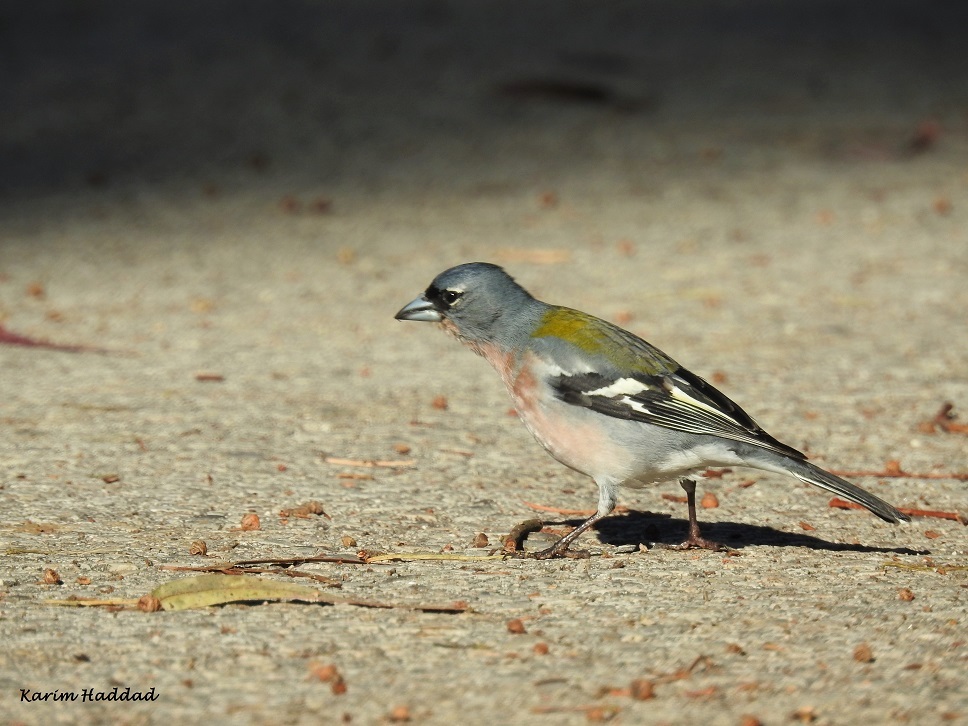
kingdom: Animalia
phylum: Chordata
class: Aves
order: Passeriformes
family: Fringillidae
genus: Fringilla
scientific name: Fringilla spodiogenys
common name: African chaffinch
